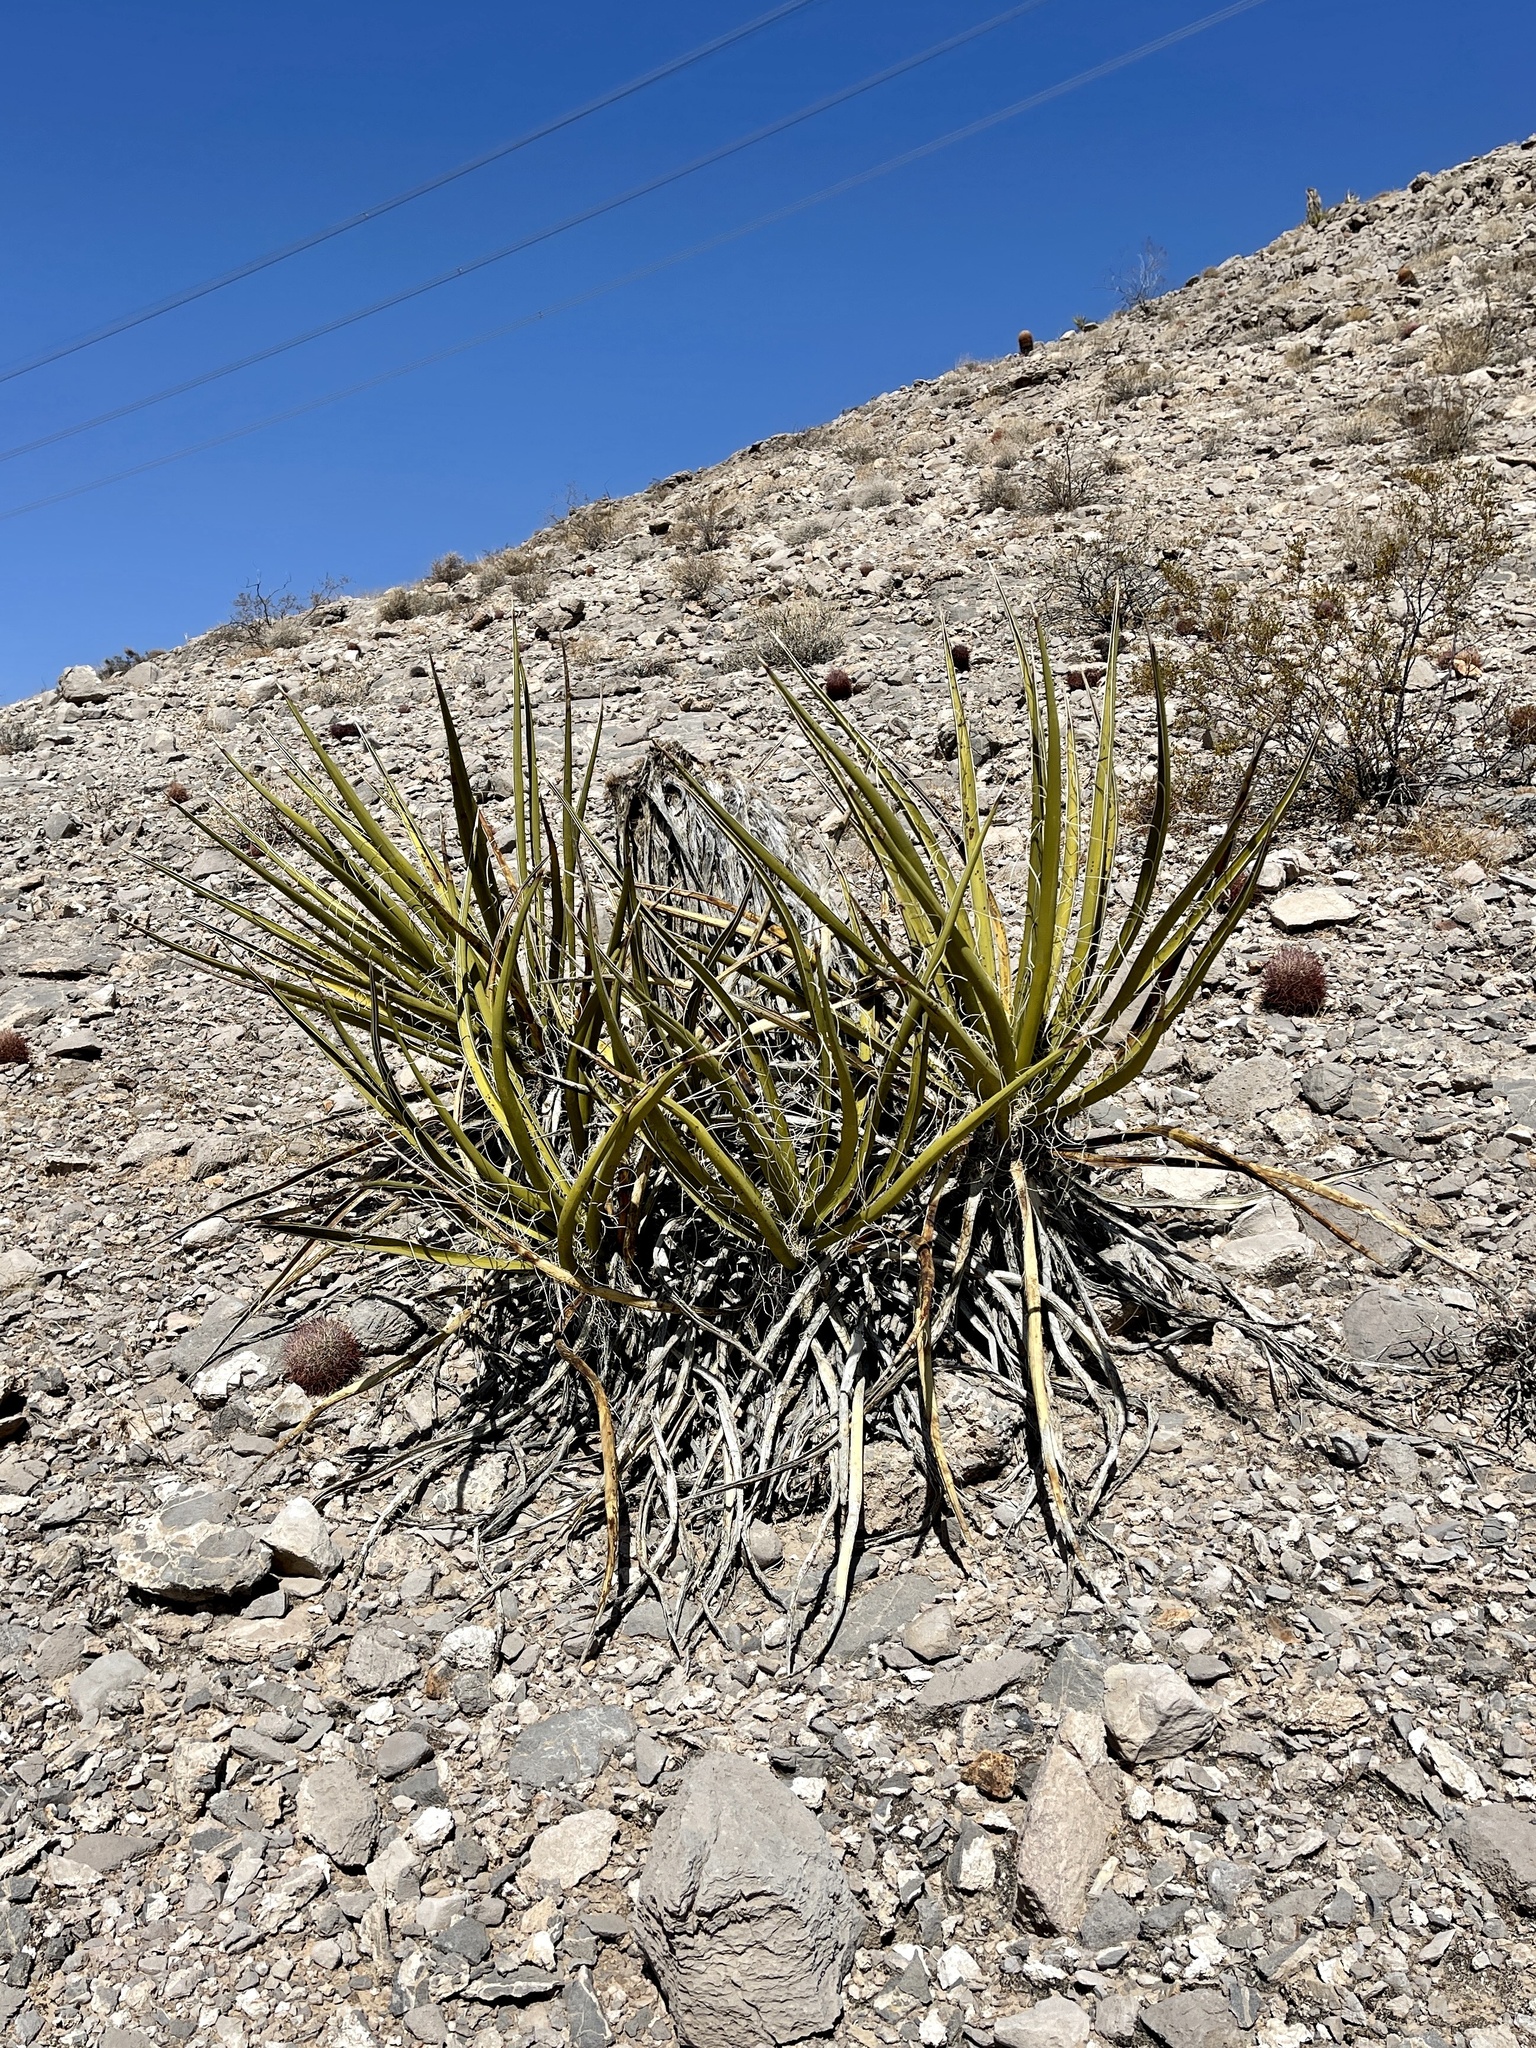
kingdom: Plantae
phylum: Tracheophyta
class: Liliopsida
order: Asparagales
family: Asparagaceae
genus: Yucca
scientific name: Yucca schidigera
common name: Mojave yucca
